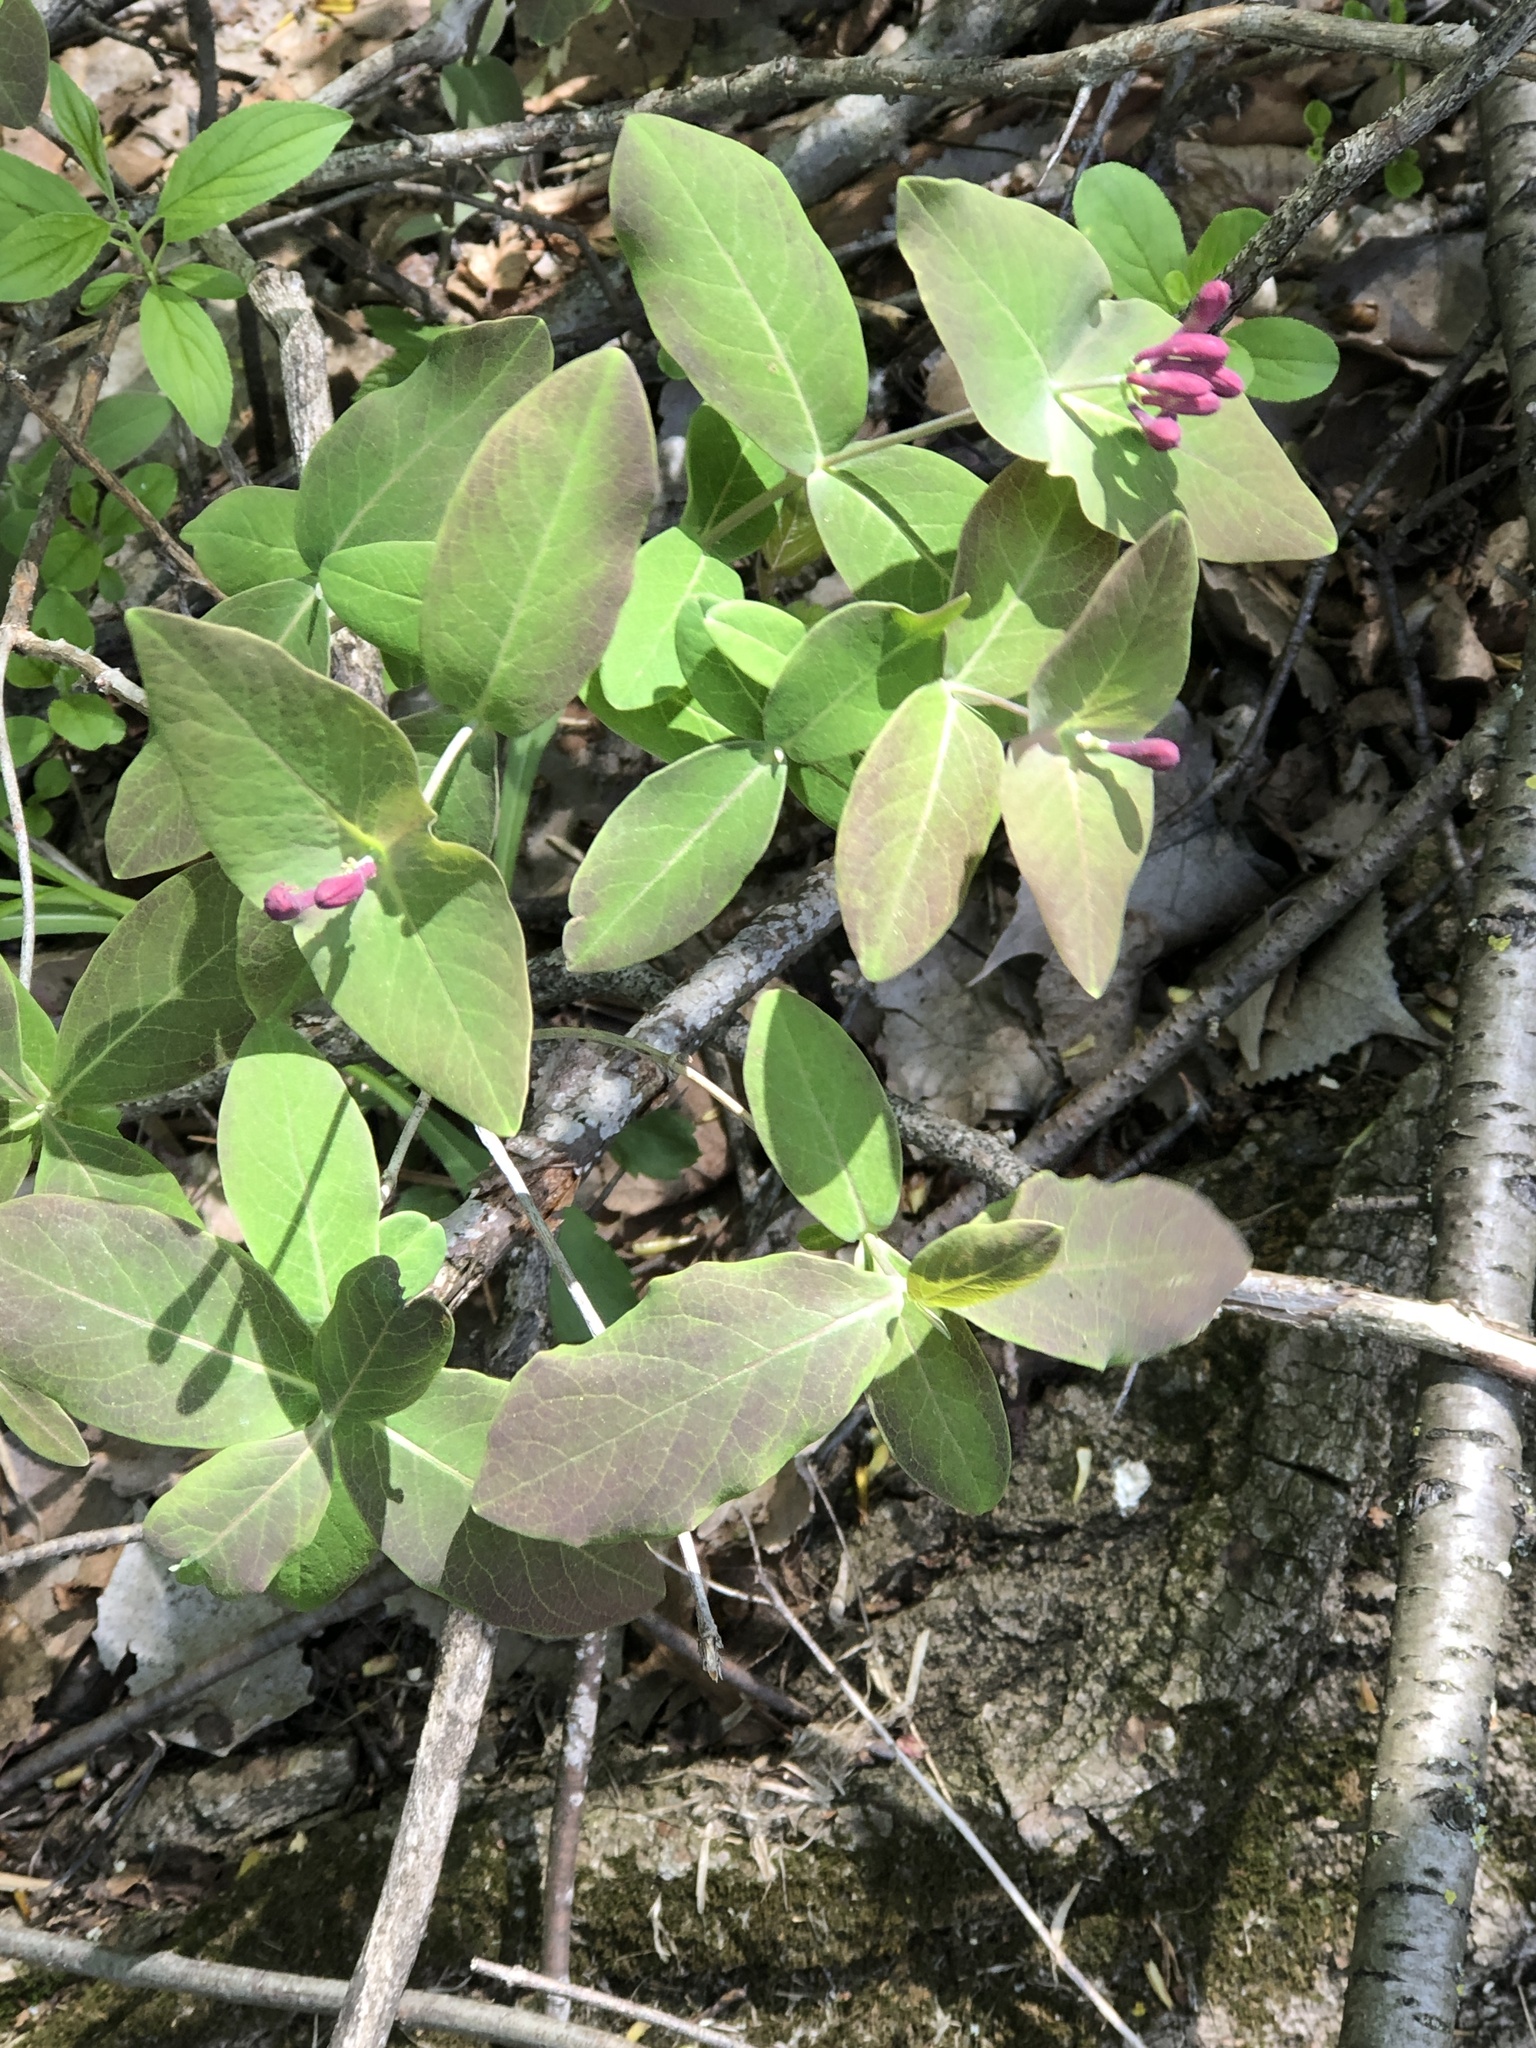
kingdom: Plantae
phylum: Tracheophyta
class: Magnoliopsida
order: Dipsacales
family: Caprifoliaceae
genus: Lonicera
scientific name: Lonicera dioica
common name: Limber honeysuckle
